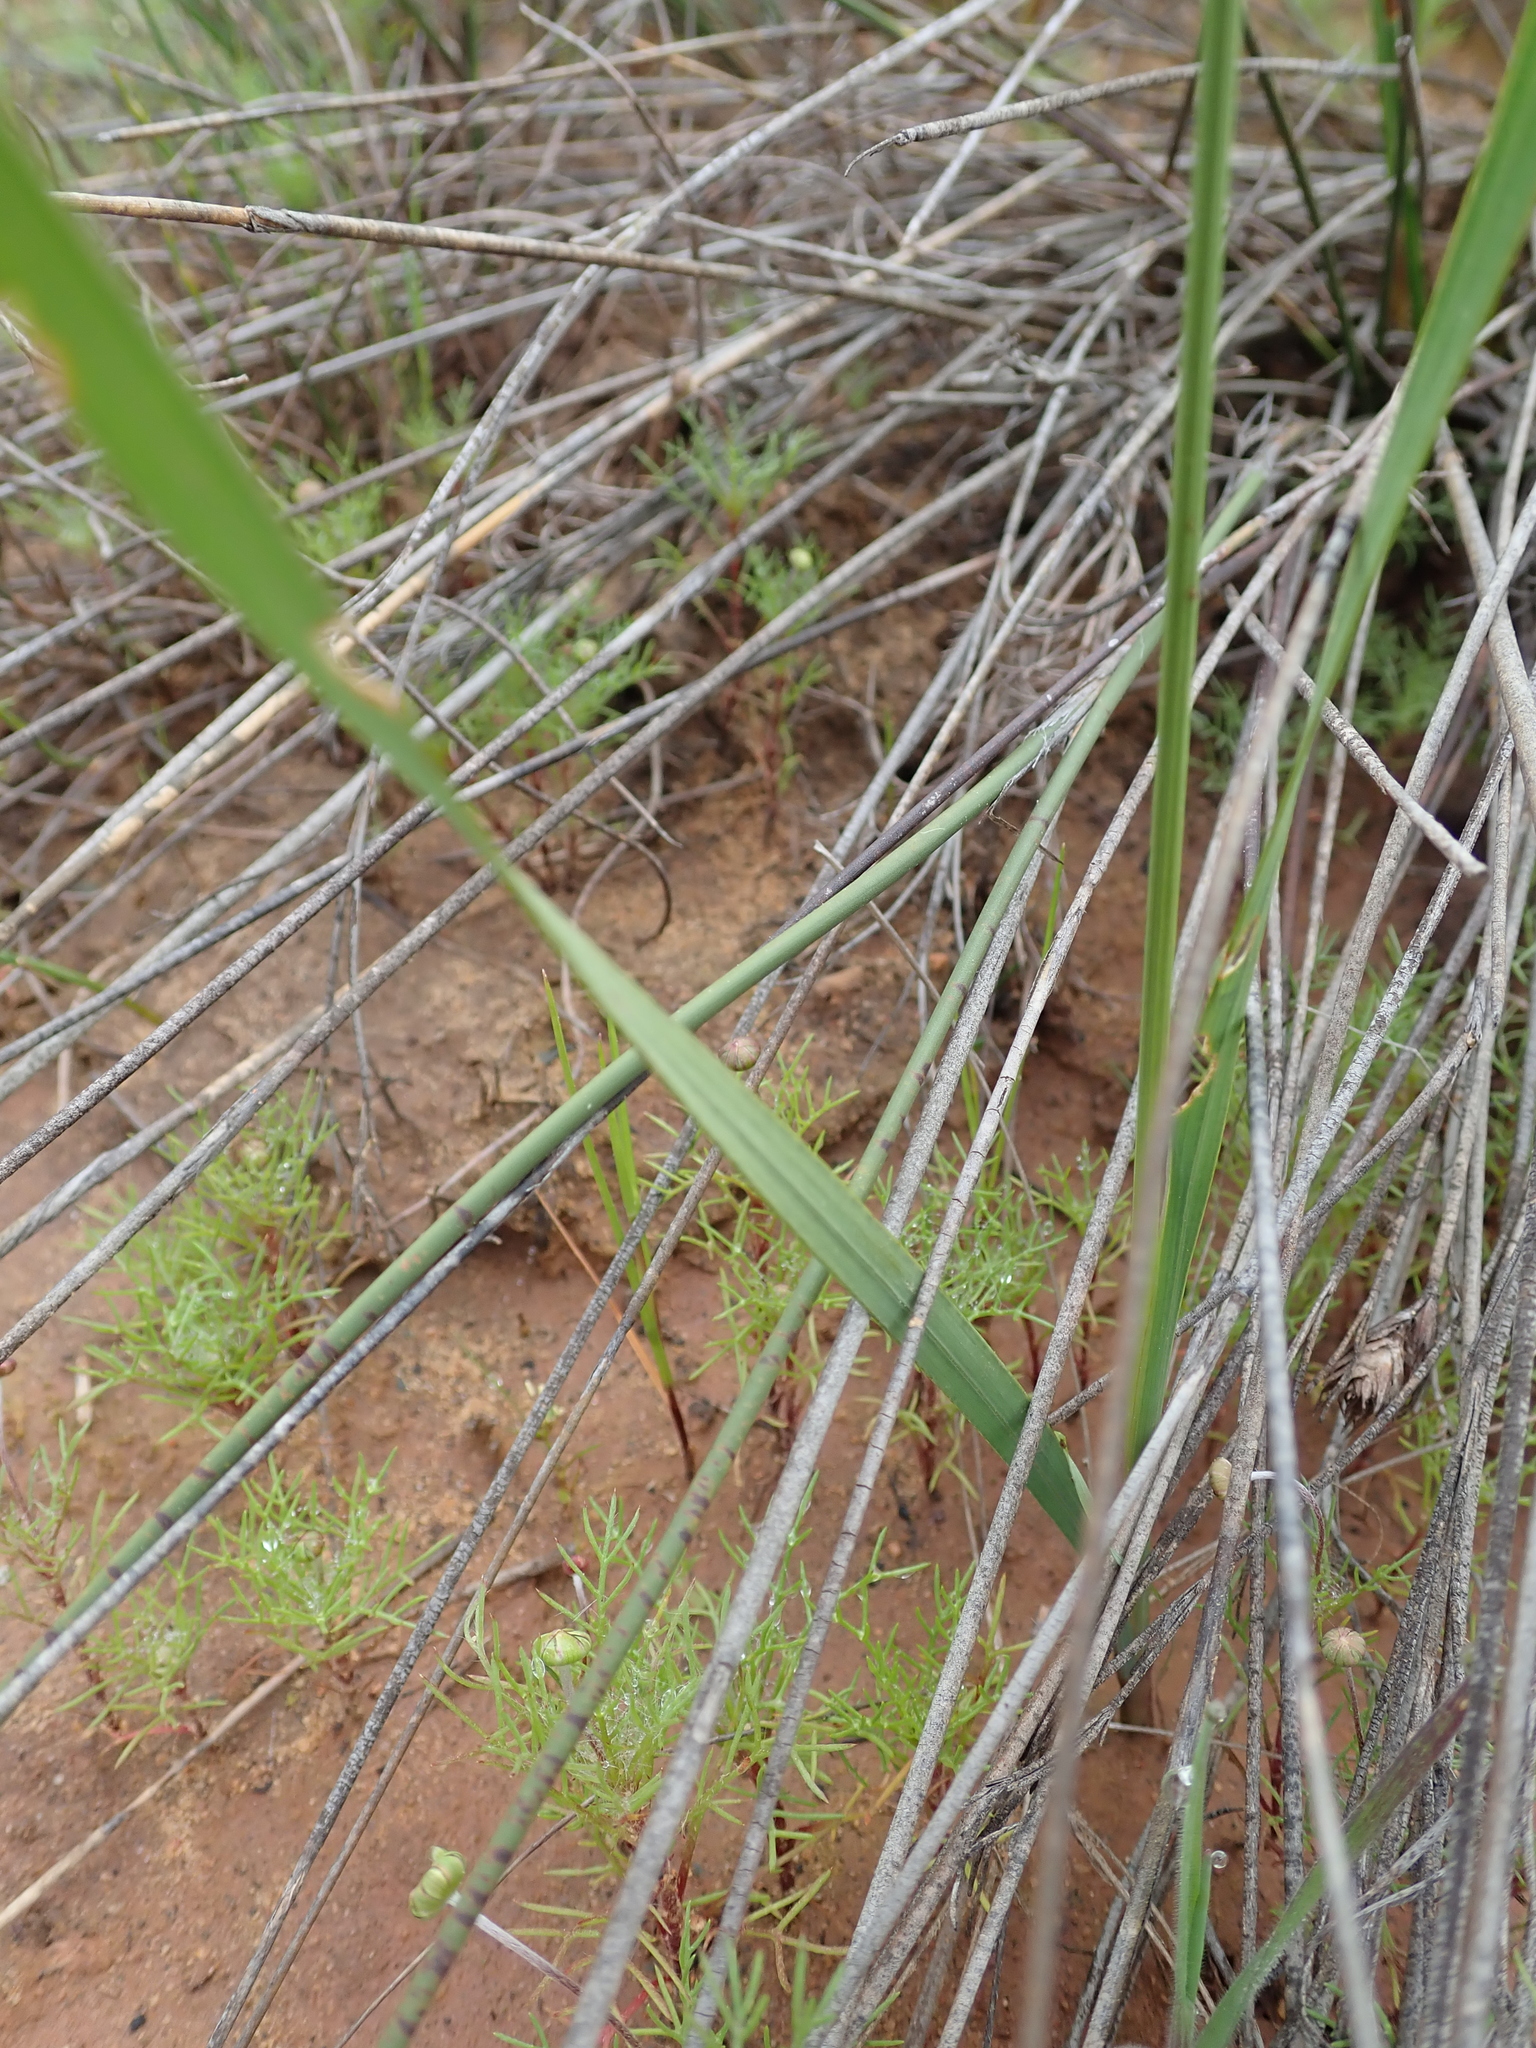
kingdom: Plantae
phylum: Tracheophyta
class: Liliopsida
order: Asparagales
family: Iridaceae
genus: Ixia
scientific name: Ixia namaquana
